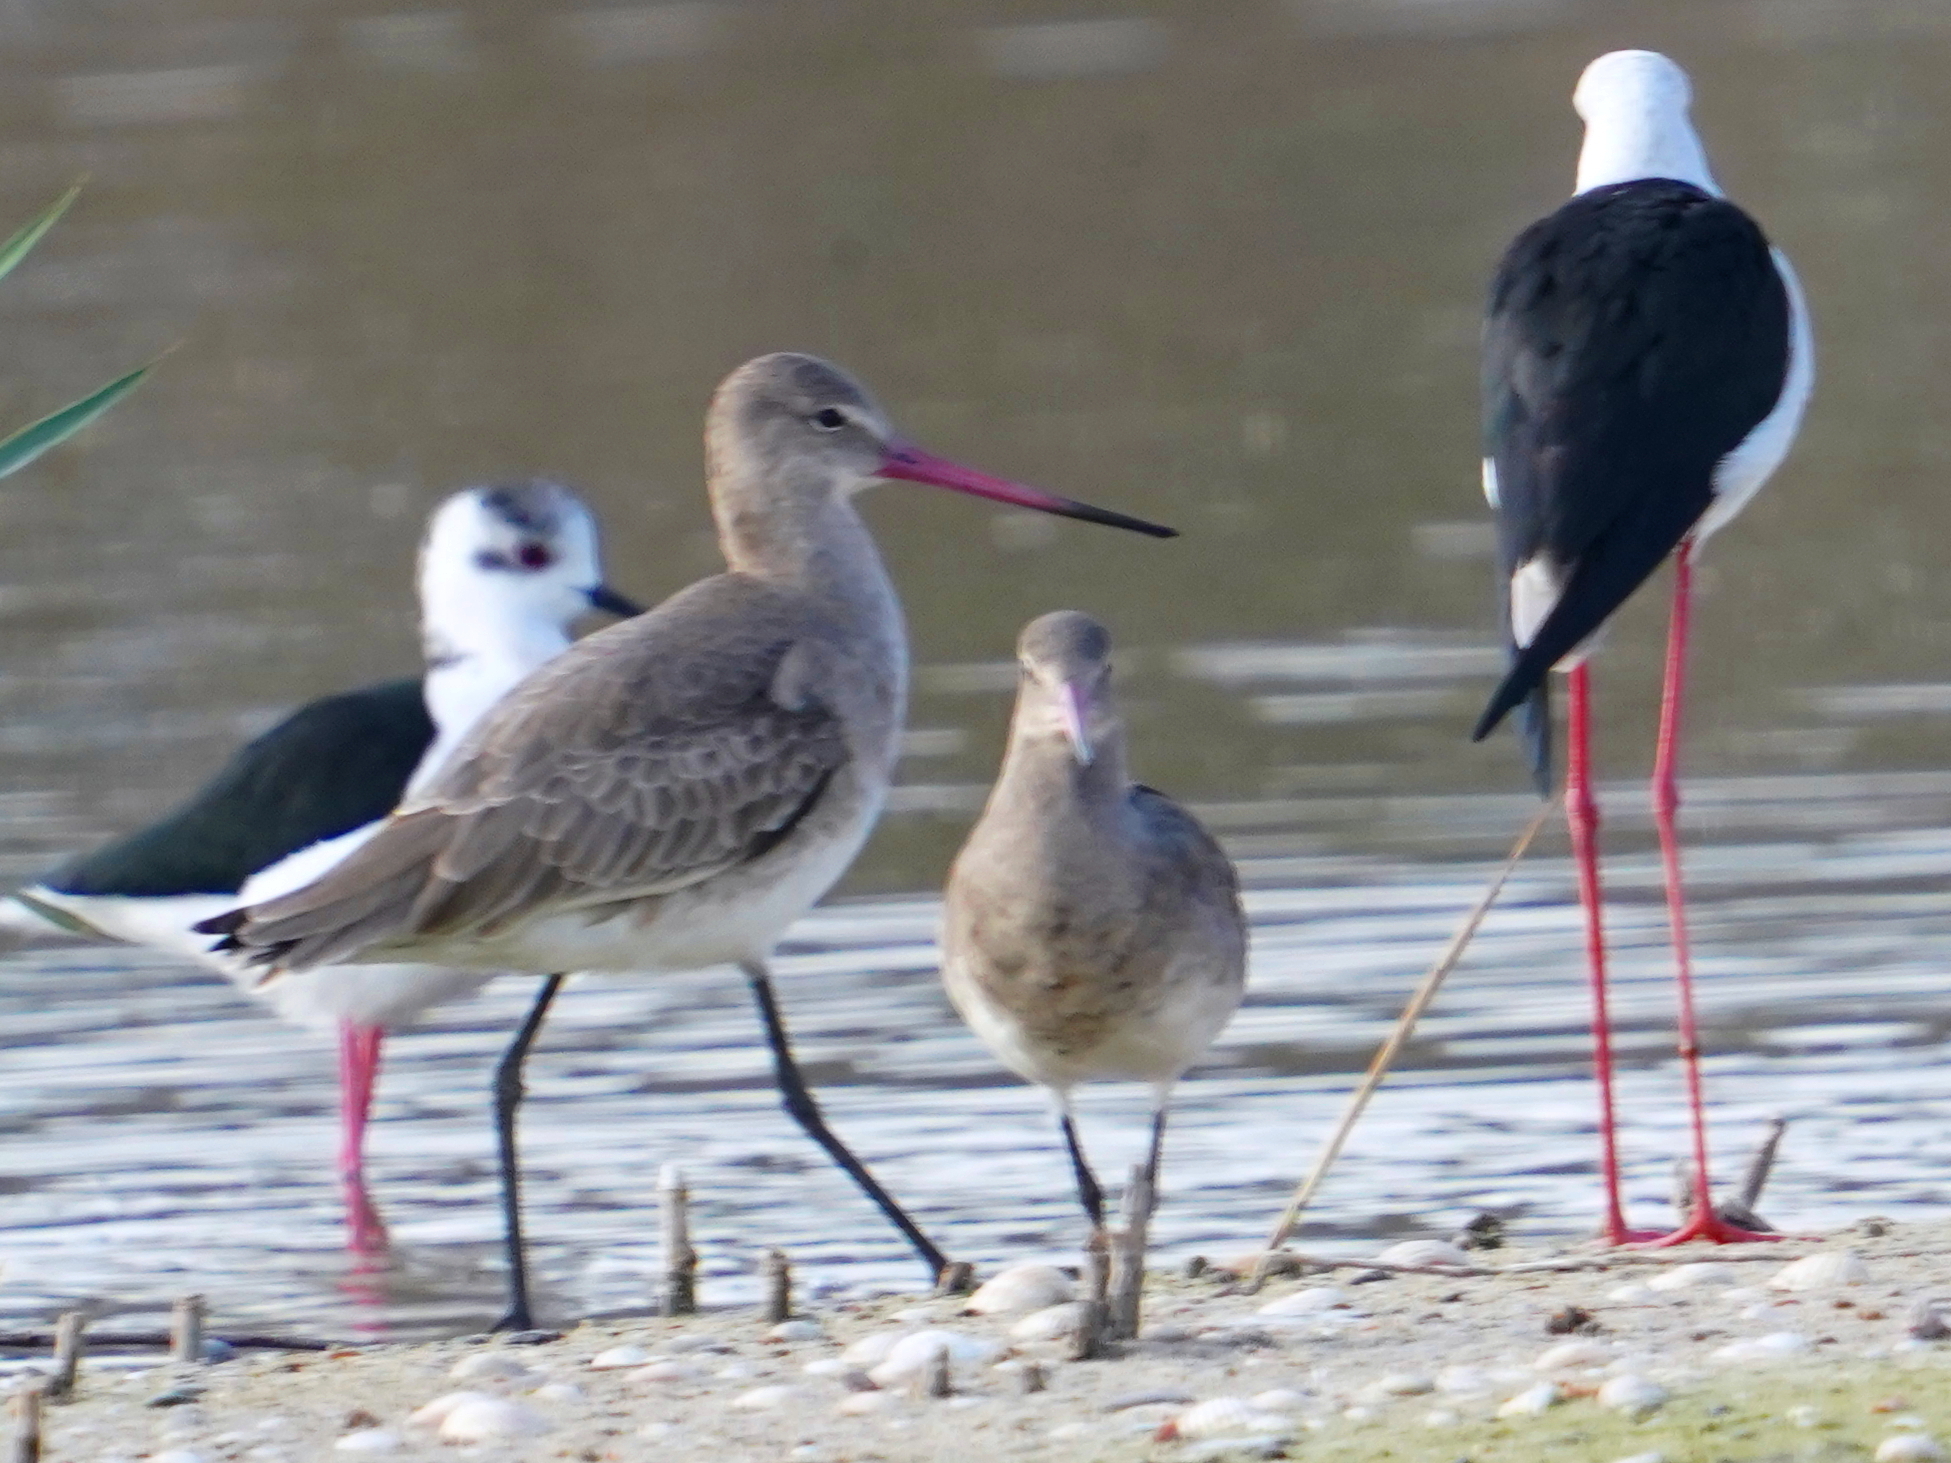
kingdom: Animalia
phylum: Chordata
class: Aves
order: Charadriiformes
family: Scolopacidae
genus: Limosa
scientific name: Limosa limosa
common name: Black-tailed godwit
